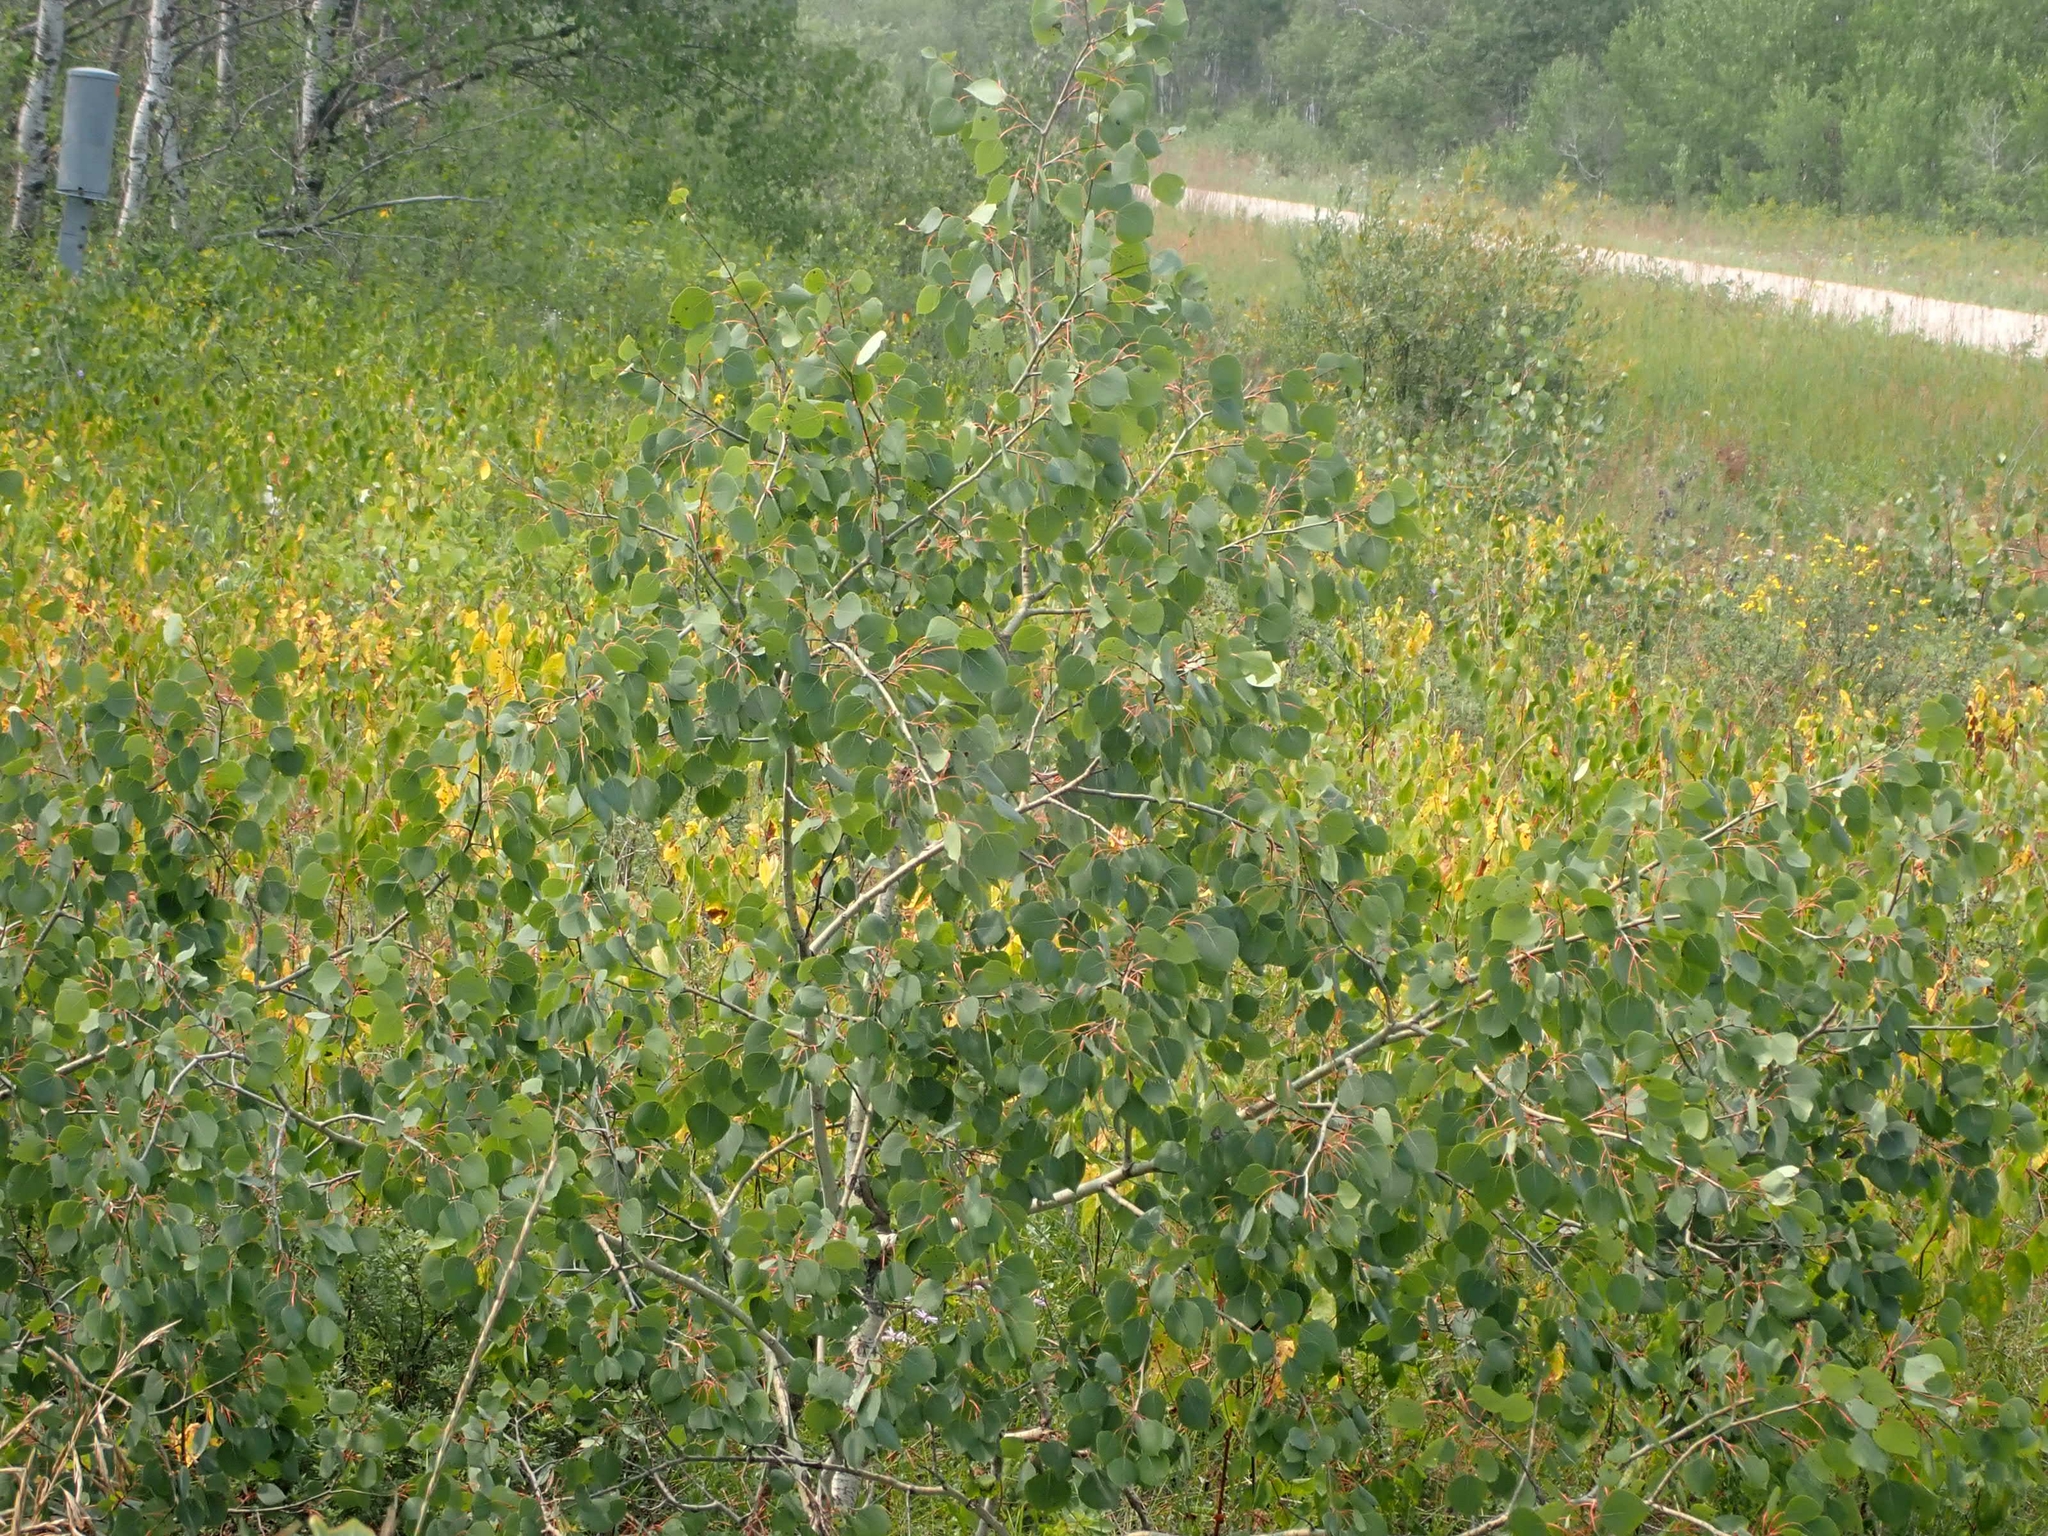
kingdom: Plantae
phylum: Tracheophyta
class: Magnoliopsida
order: Malpighiales
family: Salicaceae
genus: Populus
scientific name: Populus tremuloides
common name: Quaking aspen
